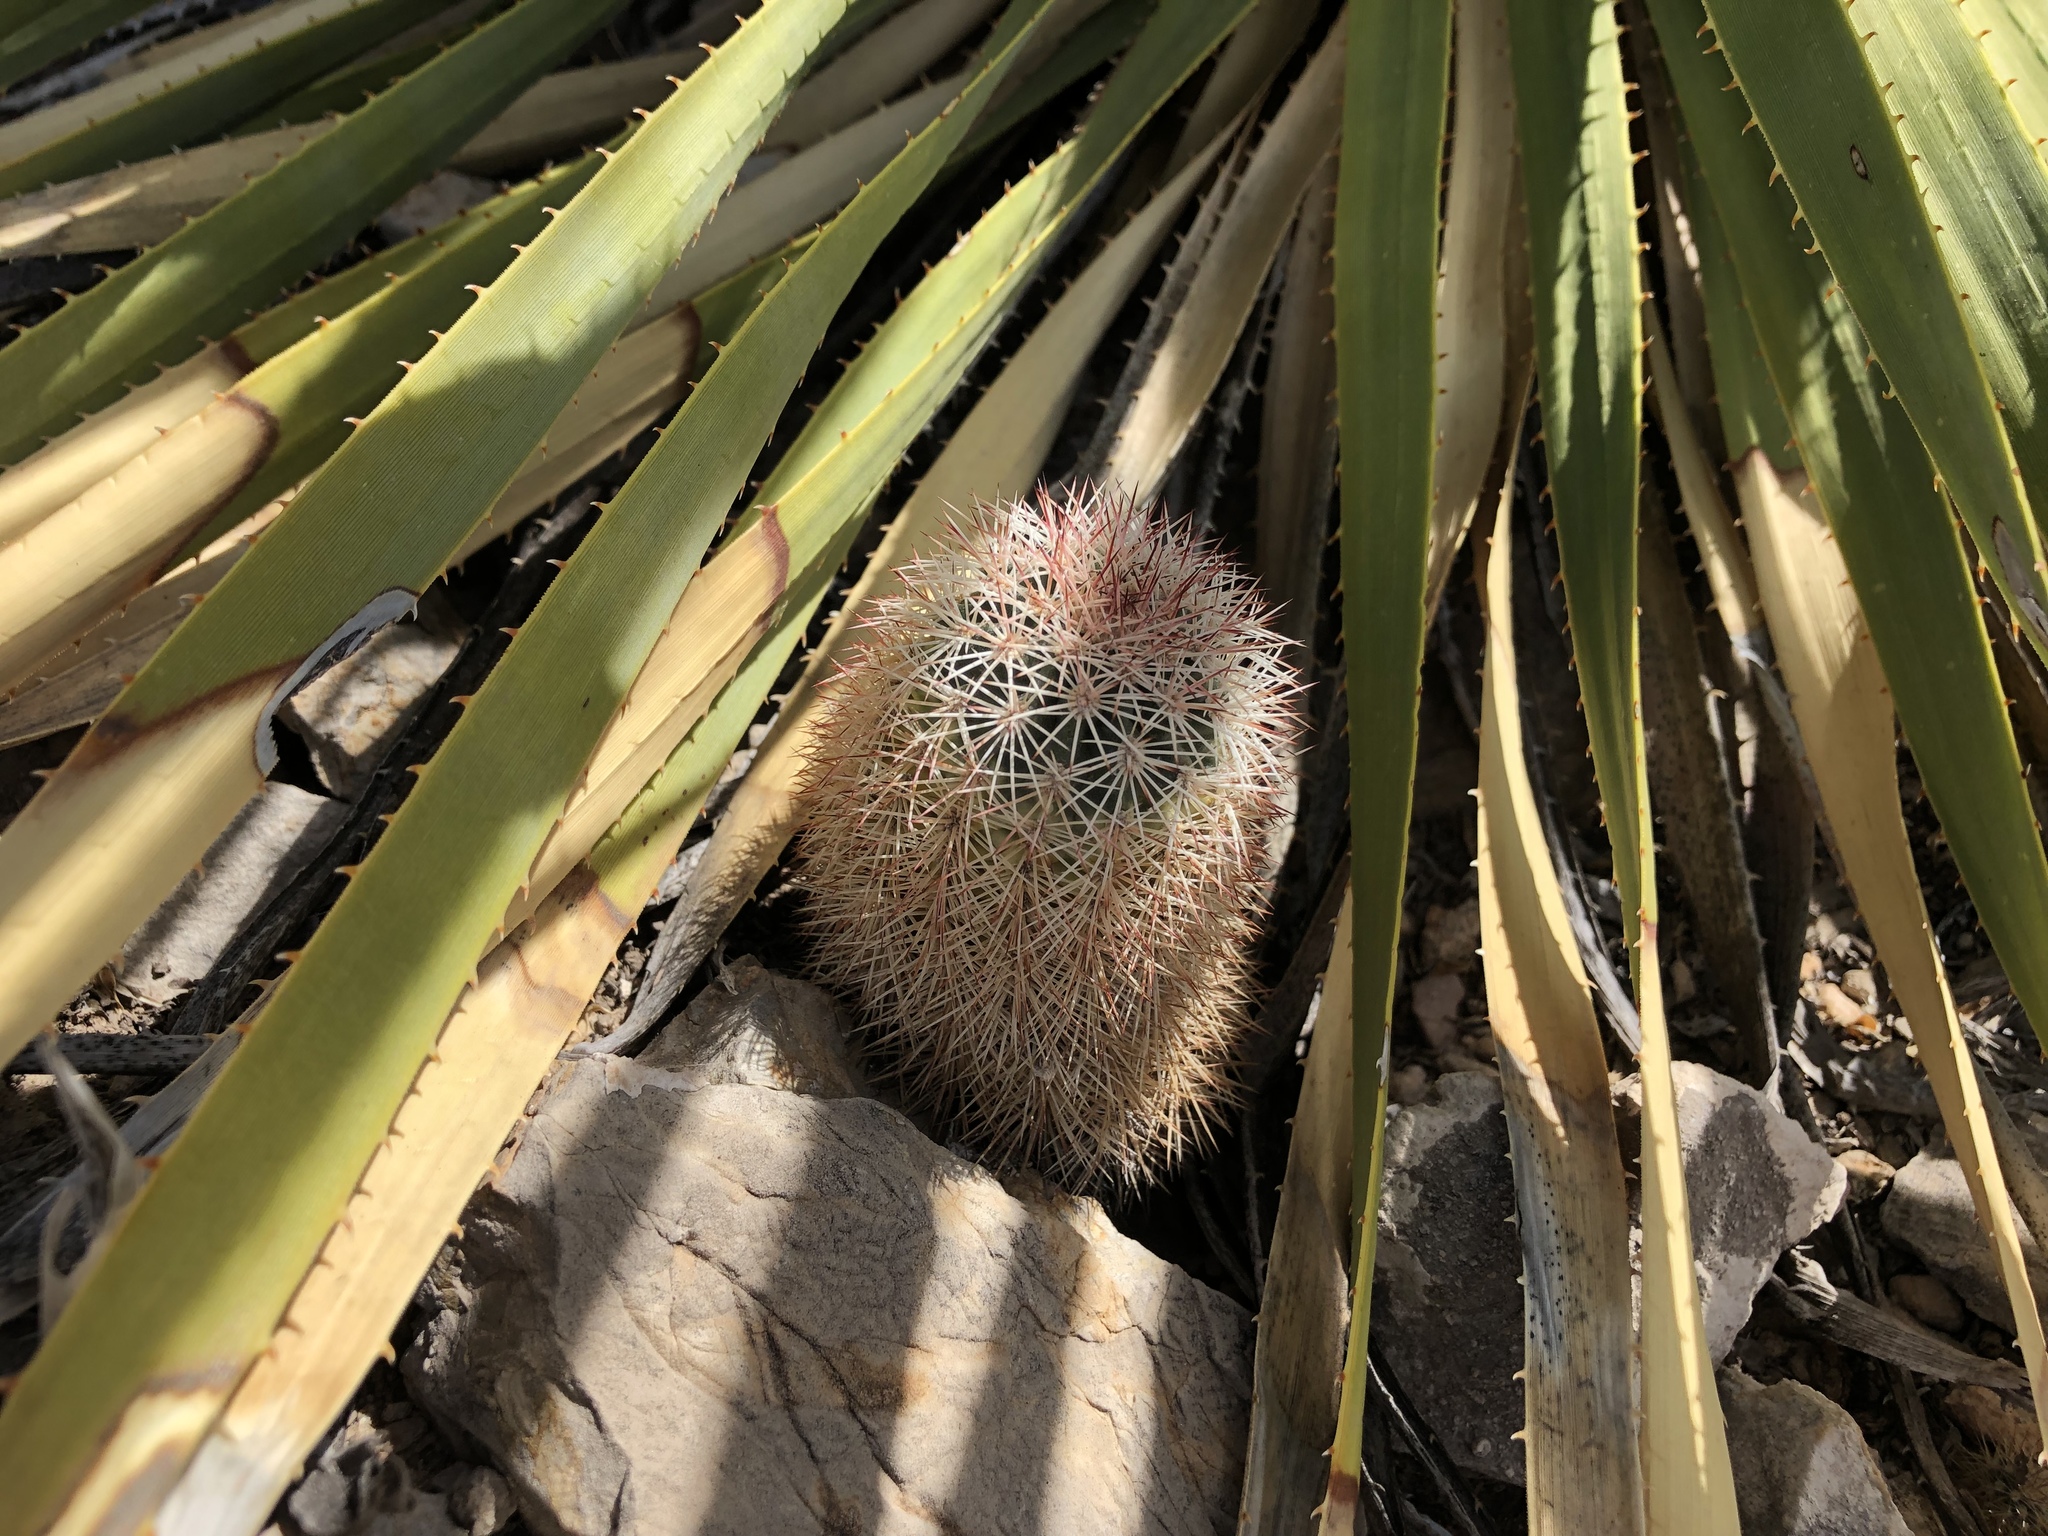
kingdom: Plantae
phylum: Tracheophyta
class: Magnoliopsida
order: Caryophyllales
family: Cactaceae
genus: Echinocereus
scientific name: Echinocereus dasyacanthus
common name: Spiny hedgehog cactus
